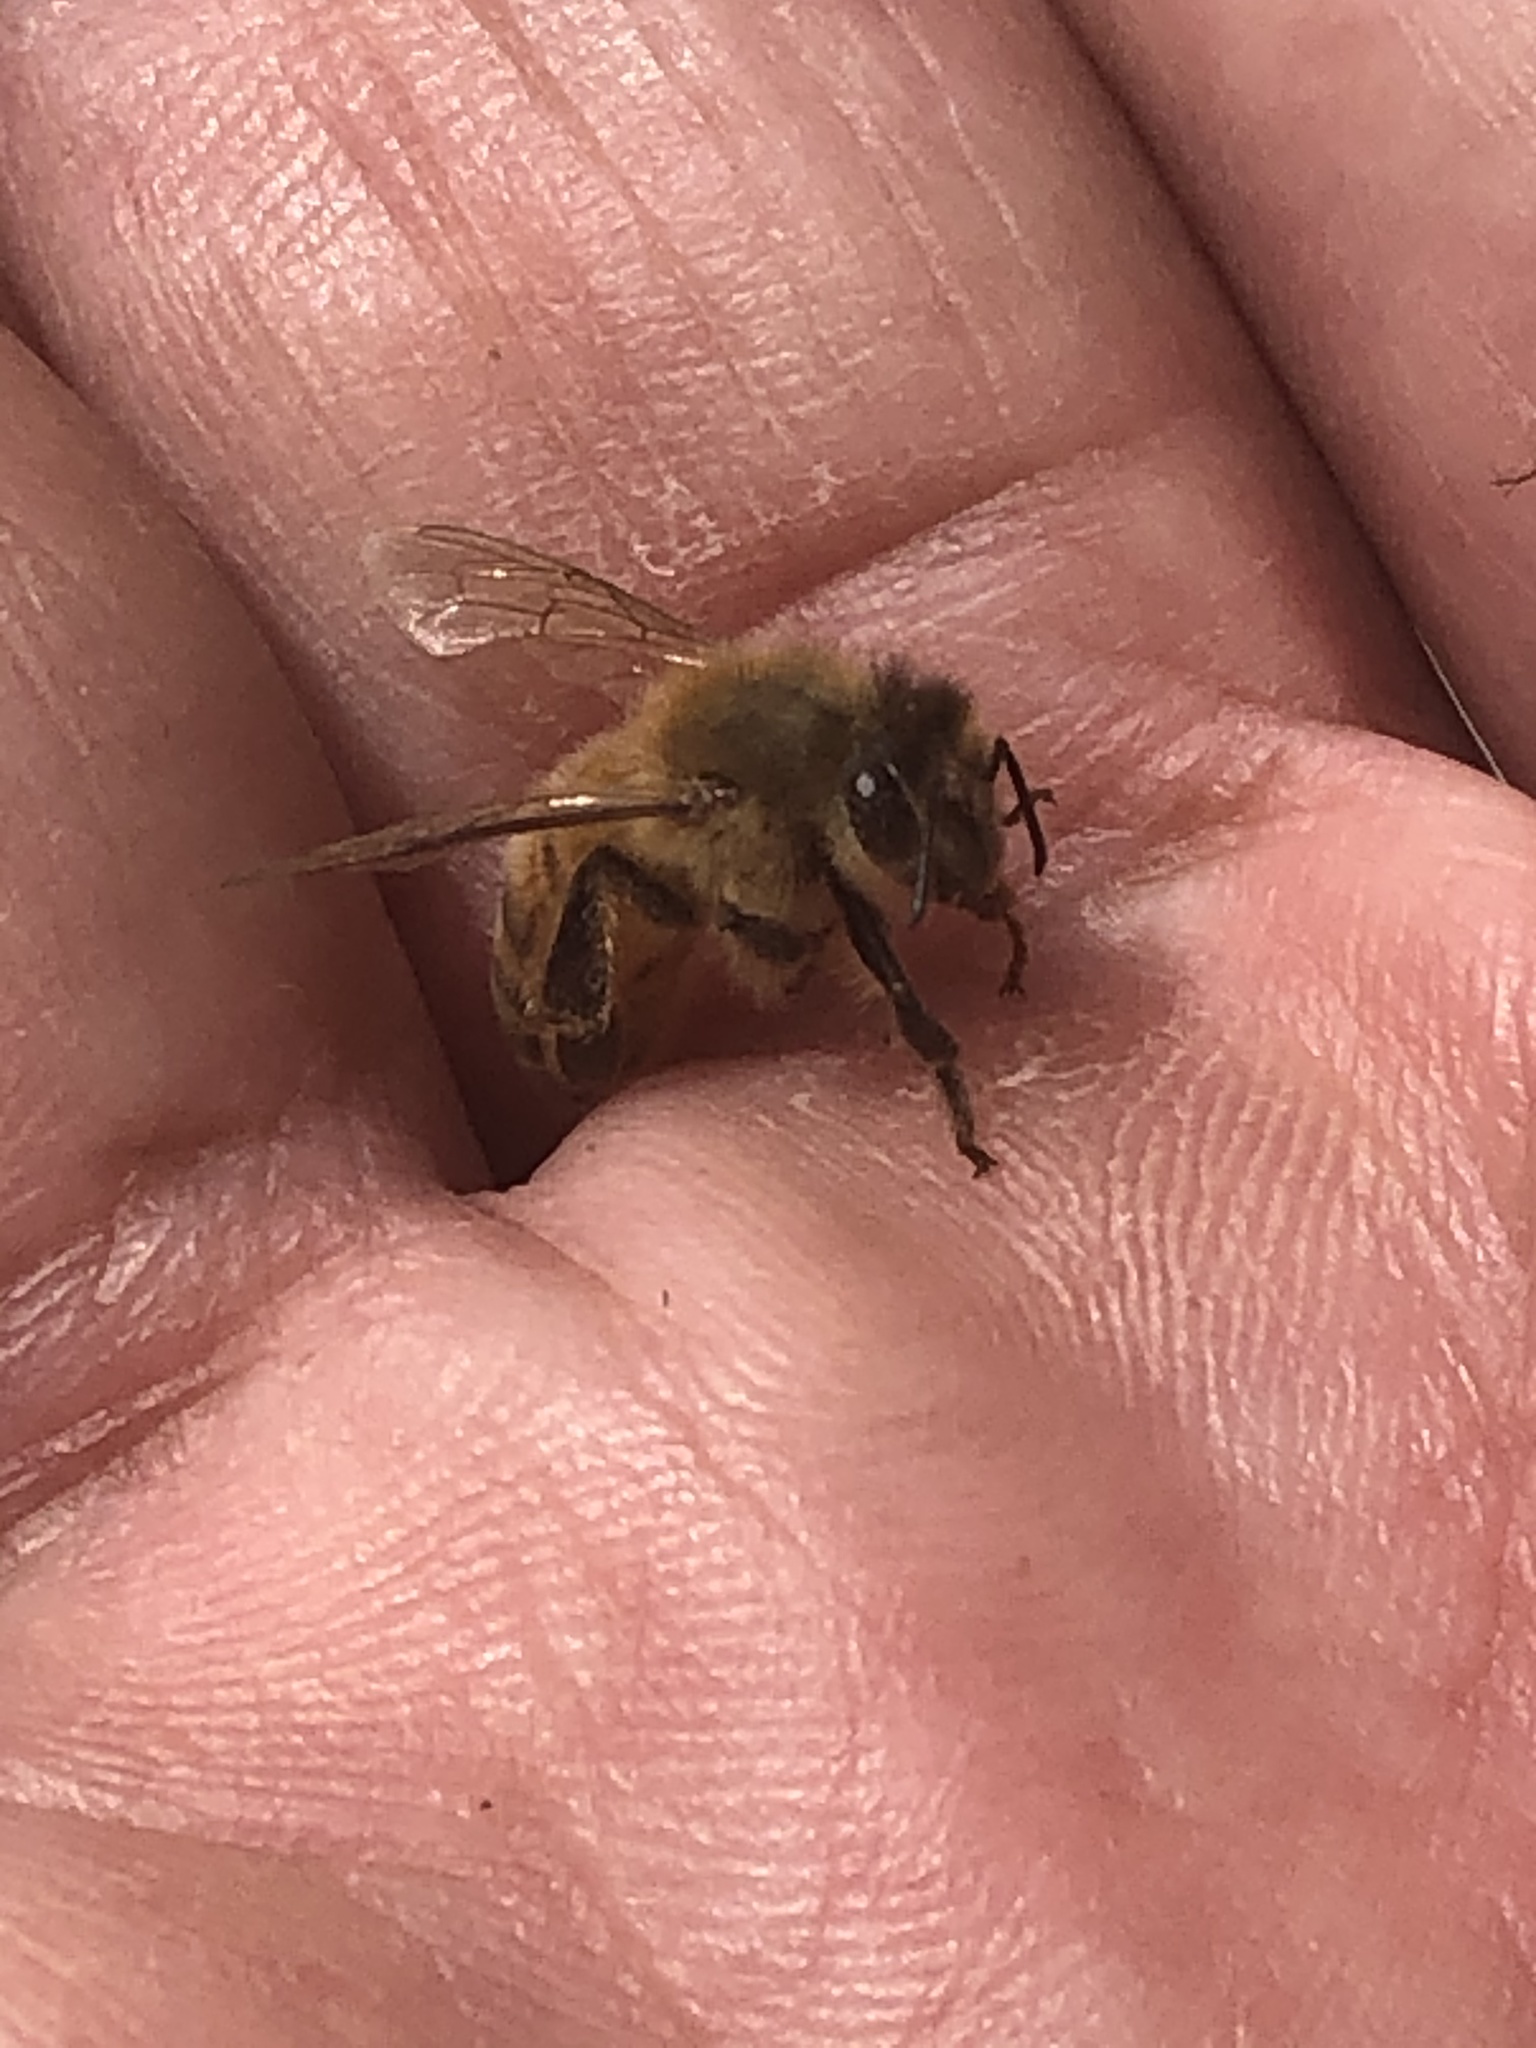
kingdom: Animalia
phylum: Arthropoda
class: Insecta
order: Hymenoptera
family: Apidae
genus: Apis
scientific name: Apis mellifera
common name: Honey bee
